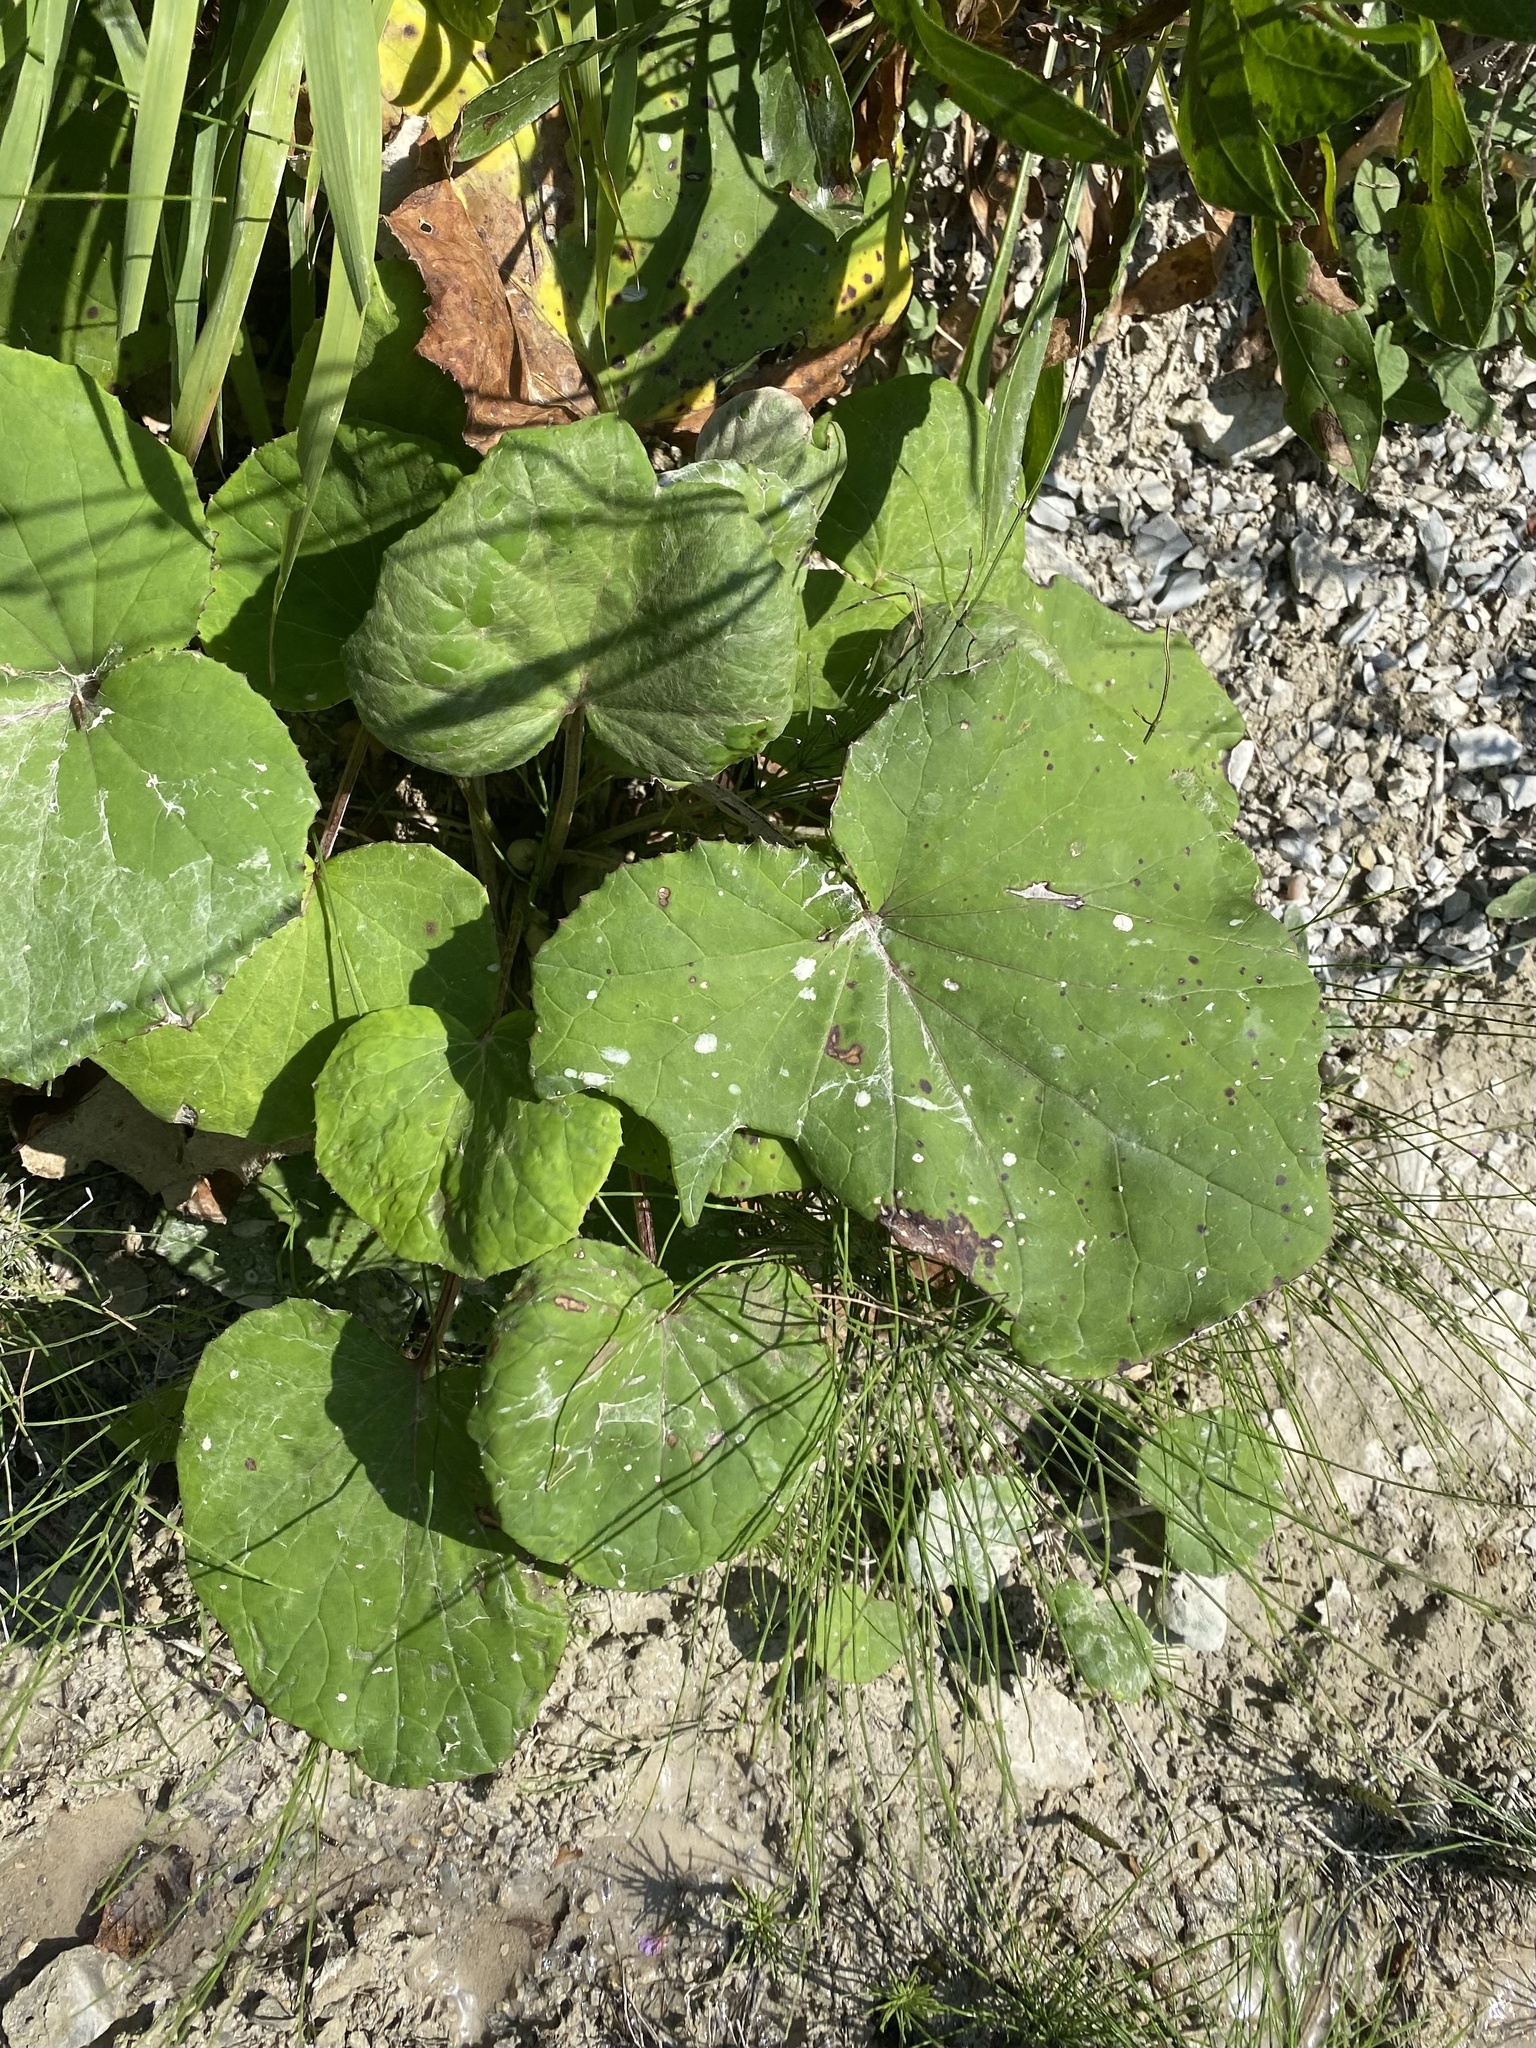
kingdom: Plantae
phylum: Tracheophyta
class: Magnoliopsida
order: Asterales
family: Asteraceae
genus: Tussilago
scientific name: Tussilago farfara
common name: Coltsfoot
